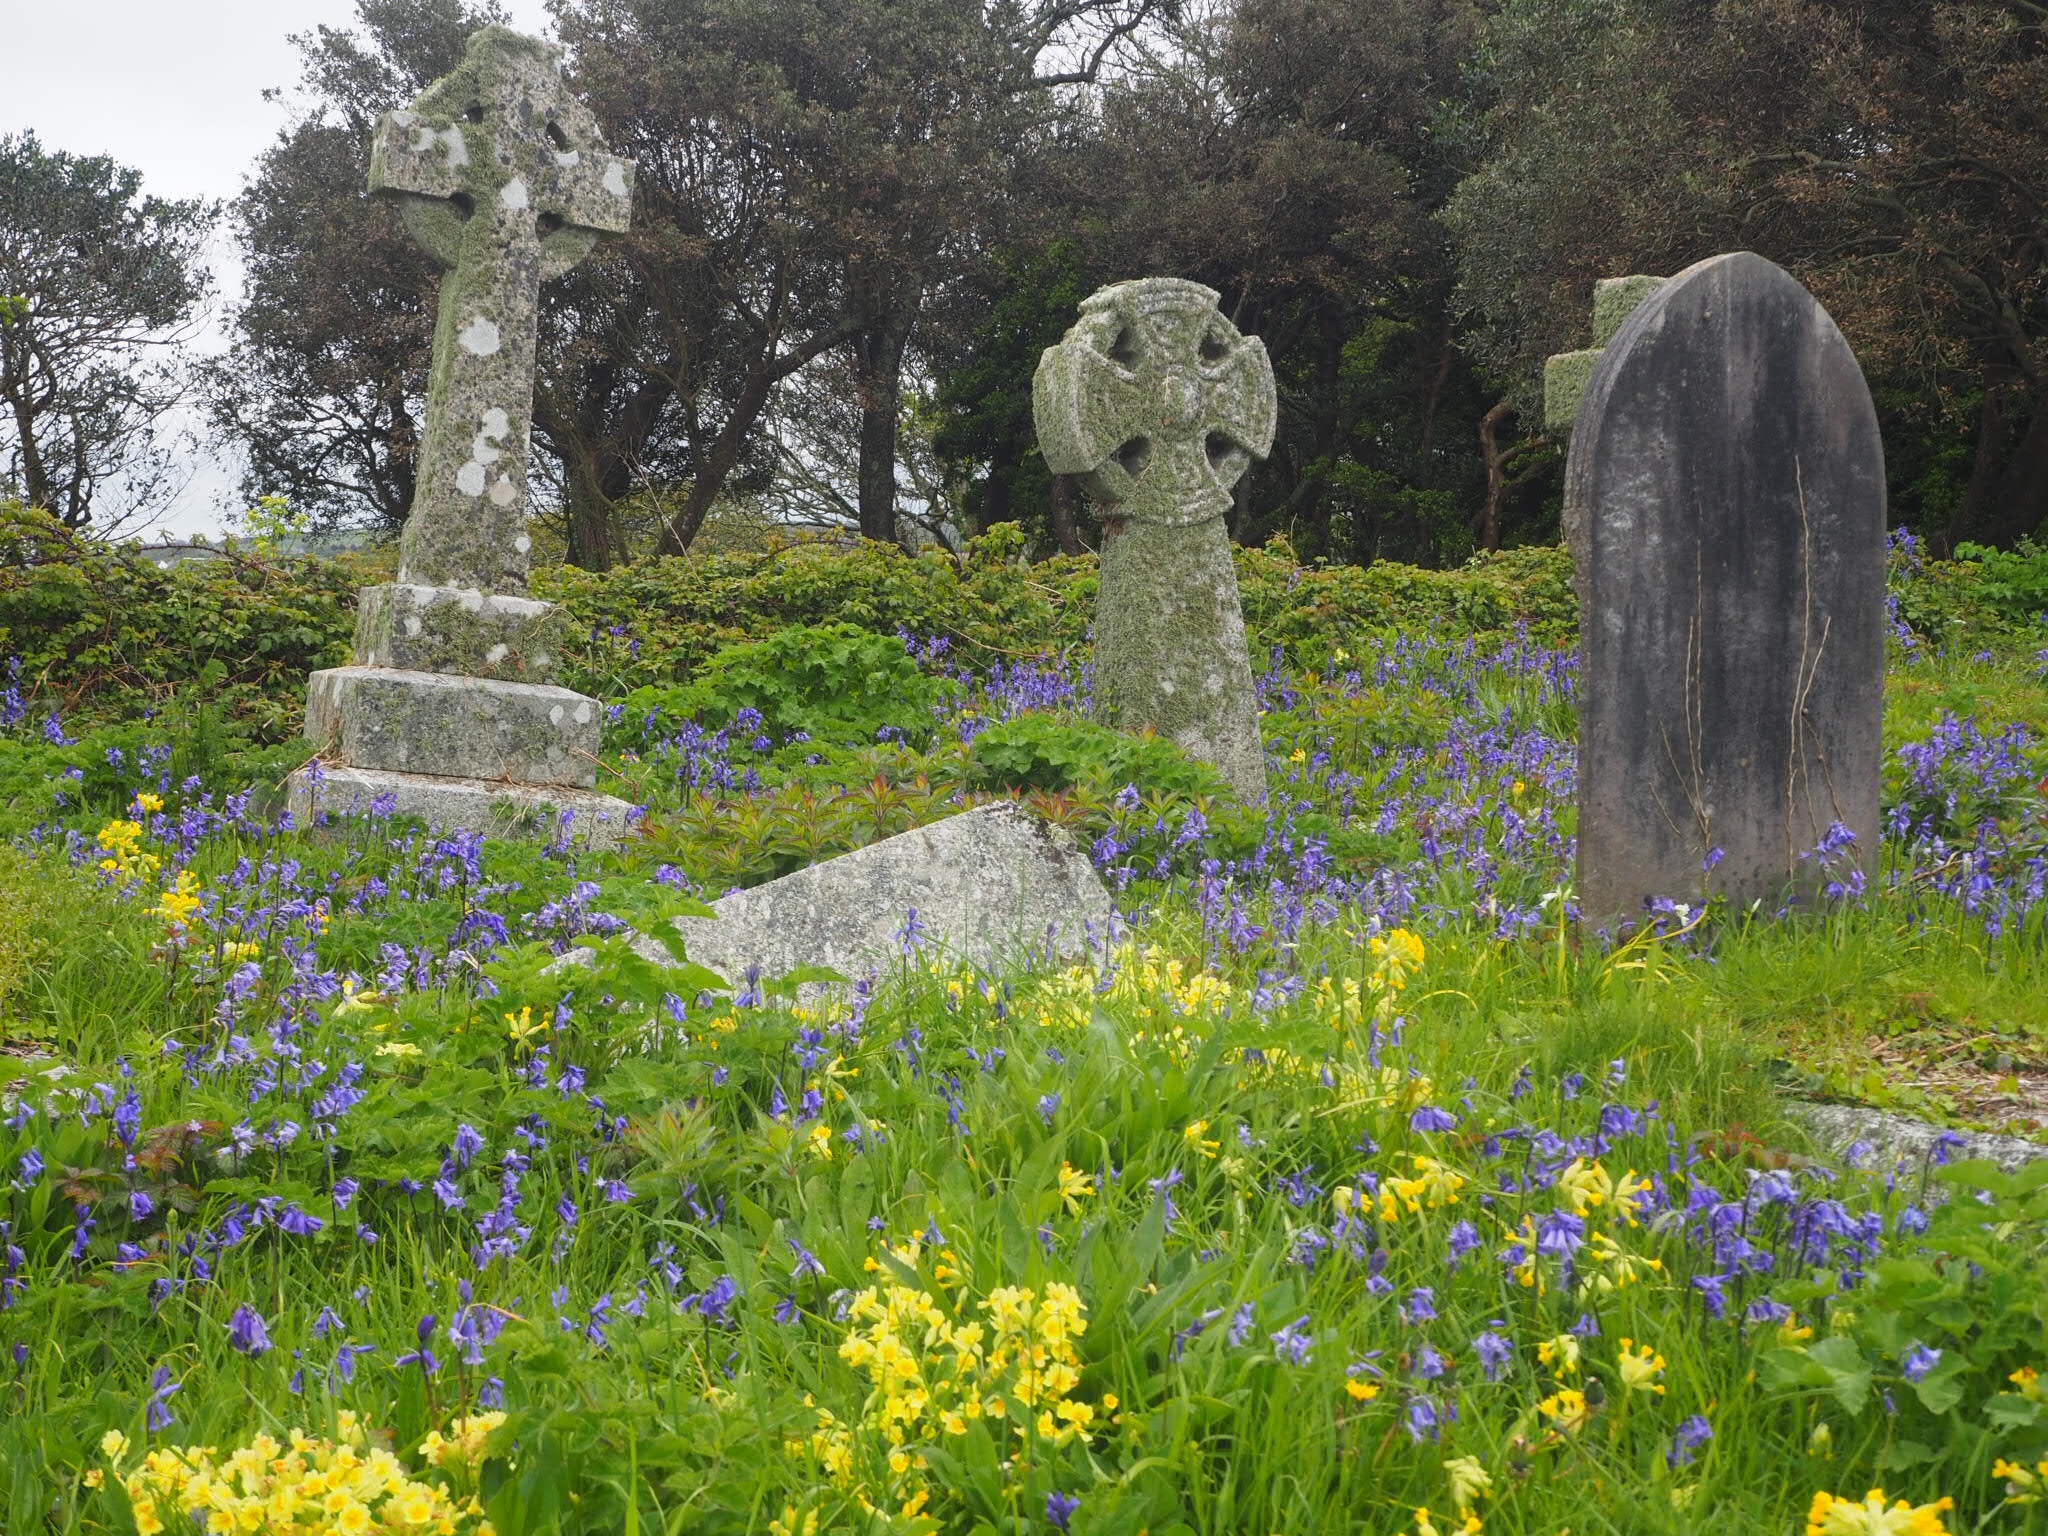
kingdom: Plantae
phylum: Tracheophyta
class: Magnoliopsida
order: Ericales
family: Primulaceae
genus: Primula
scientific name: Primula veris
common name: Cowslip
